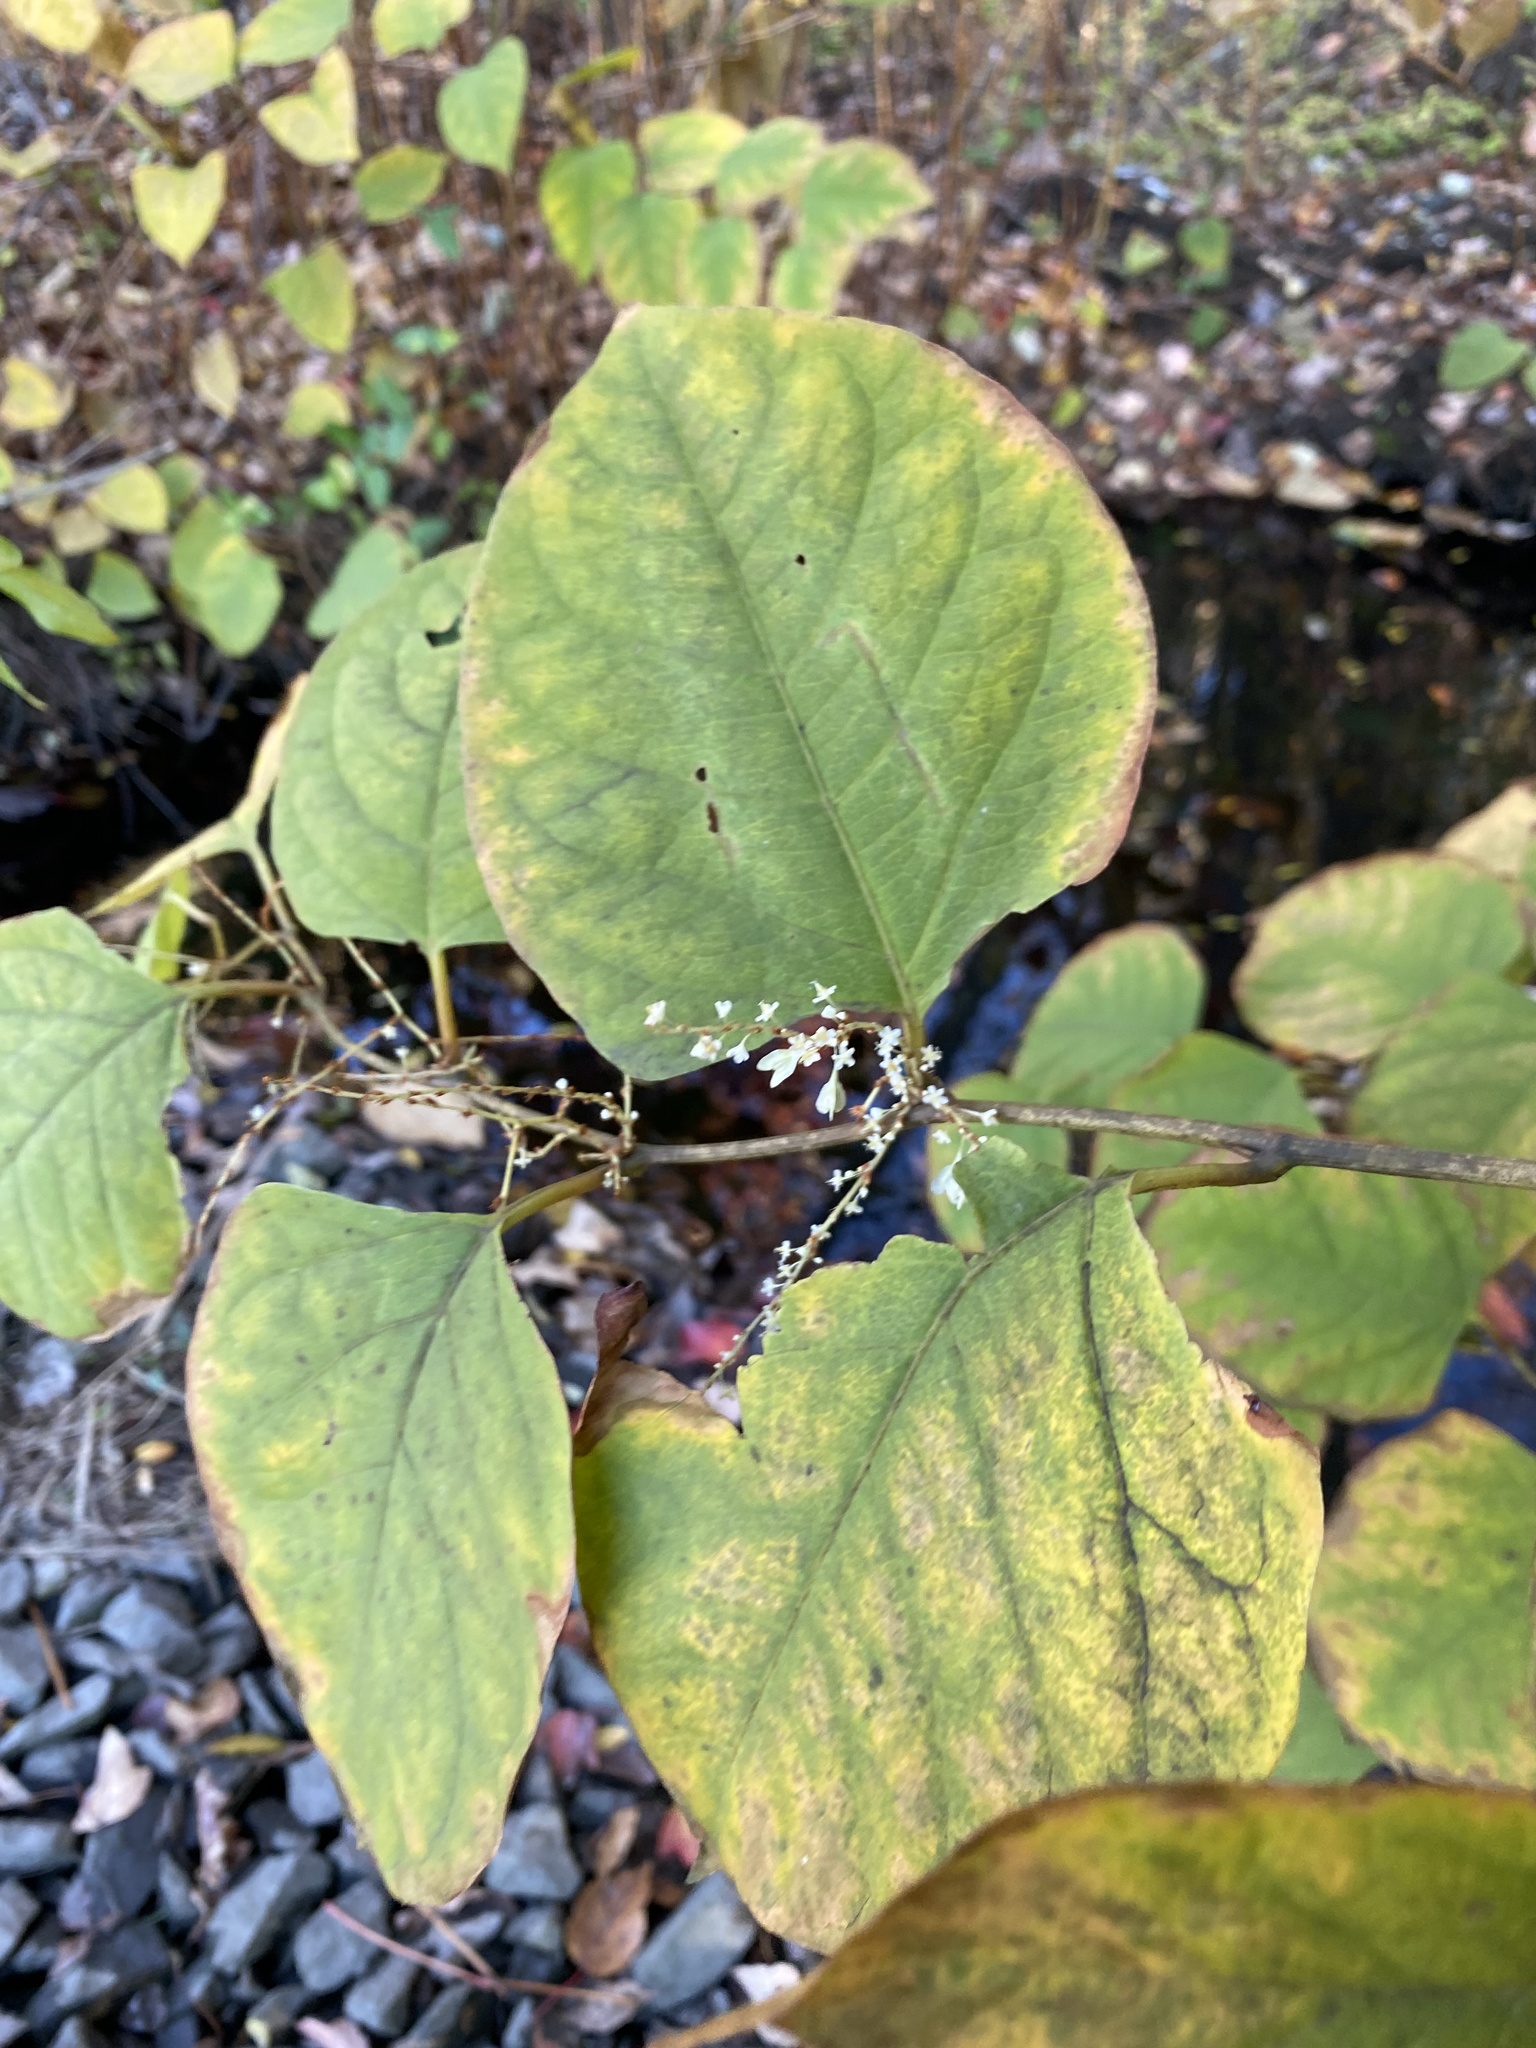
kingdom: Plantae
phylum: Tracheophyta
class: Magnoliopsida
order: Caryophyllales
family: Polygonaceae
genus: Reynoutria
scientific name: Reynoutria japonica
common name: Japanese knotweed
